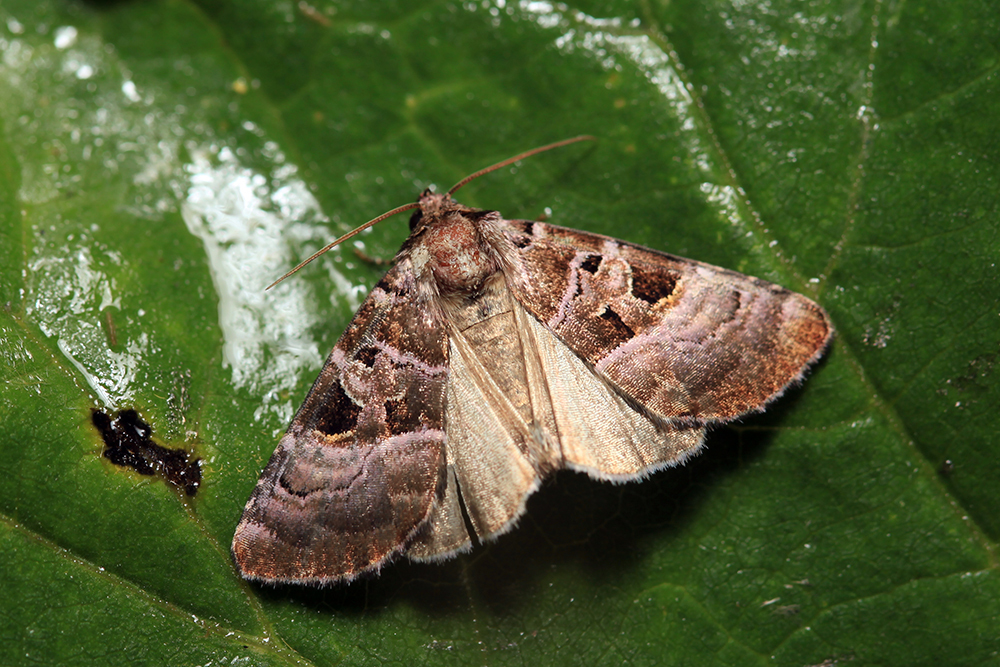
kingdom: Animalia
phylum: Arthropoda
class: Insecta
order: Lepidoptera
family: Noctuidae
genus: Eucarta
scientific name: Eucarta amethystina
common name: Cumberland green
